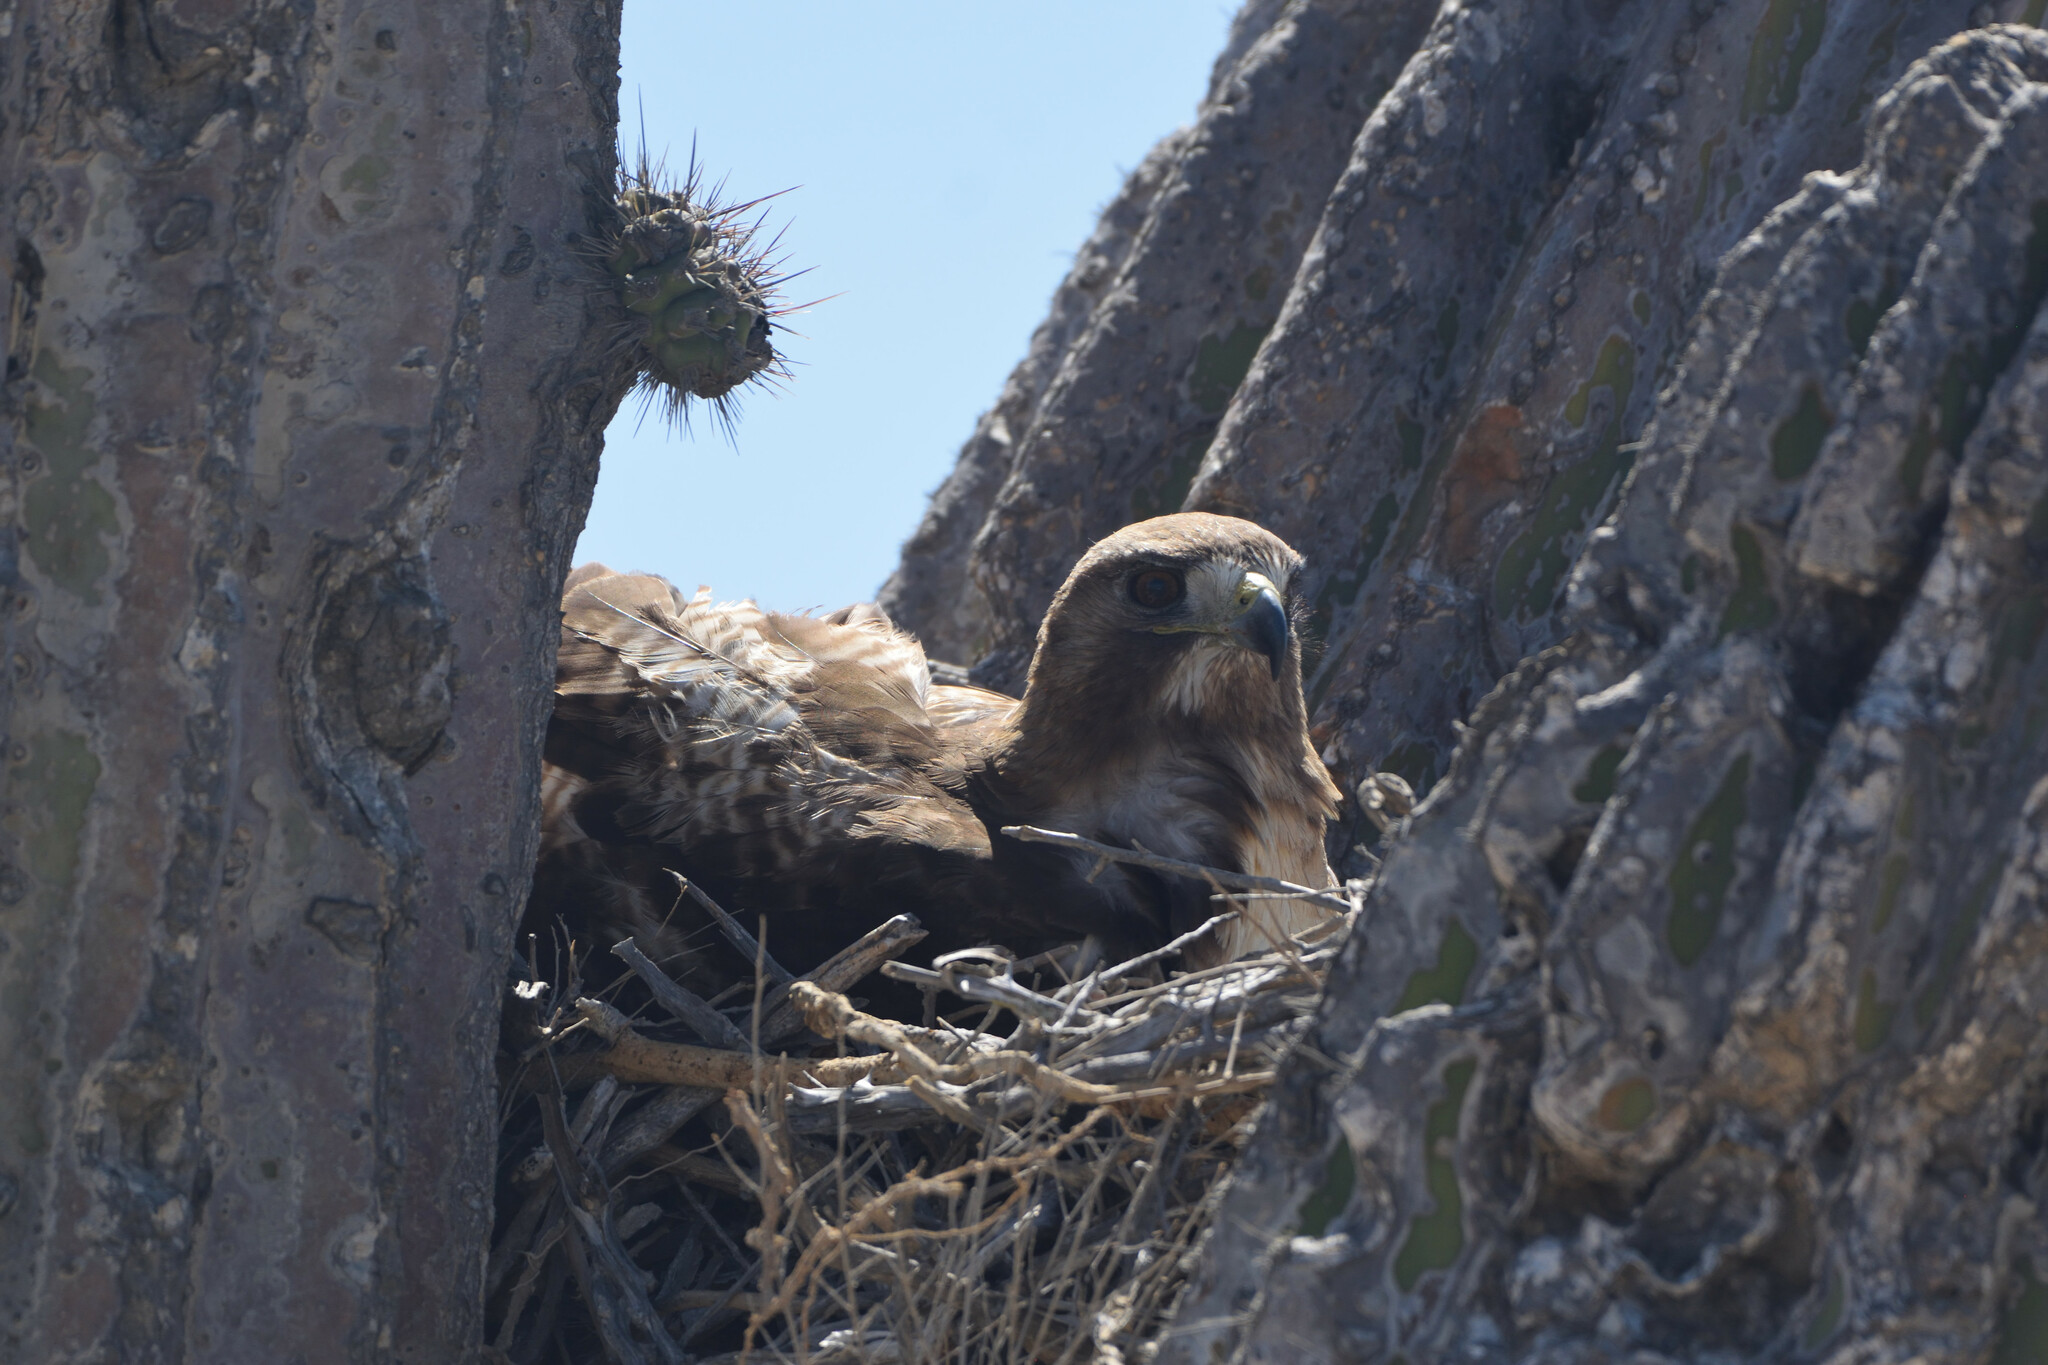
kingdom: Animalia
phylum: Chordata
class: Aves
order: Accipitriformes
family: Accipitridae
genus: Buteo
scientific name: Buteo jamaicensis
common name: Red-tailed hawk
